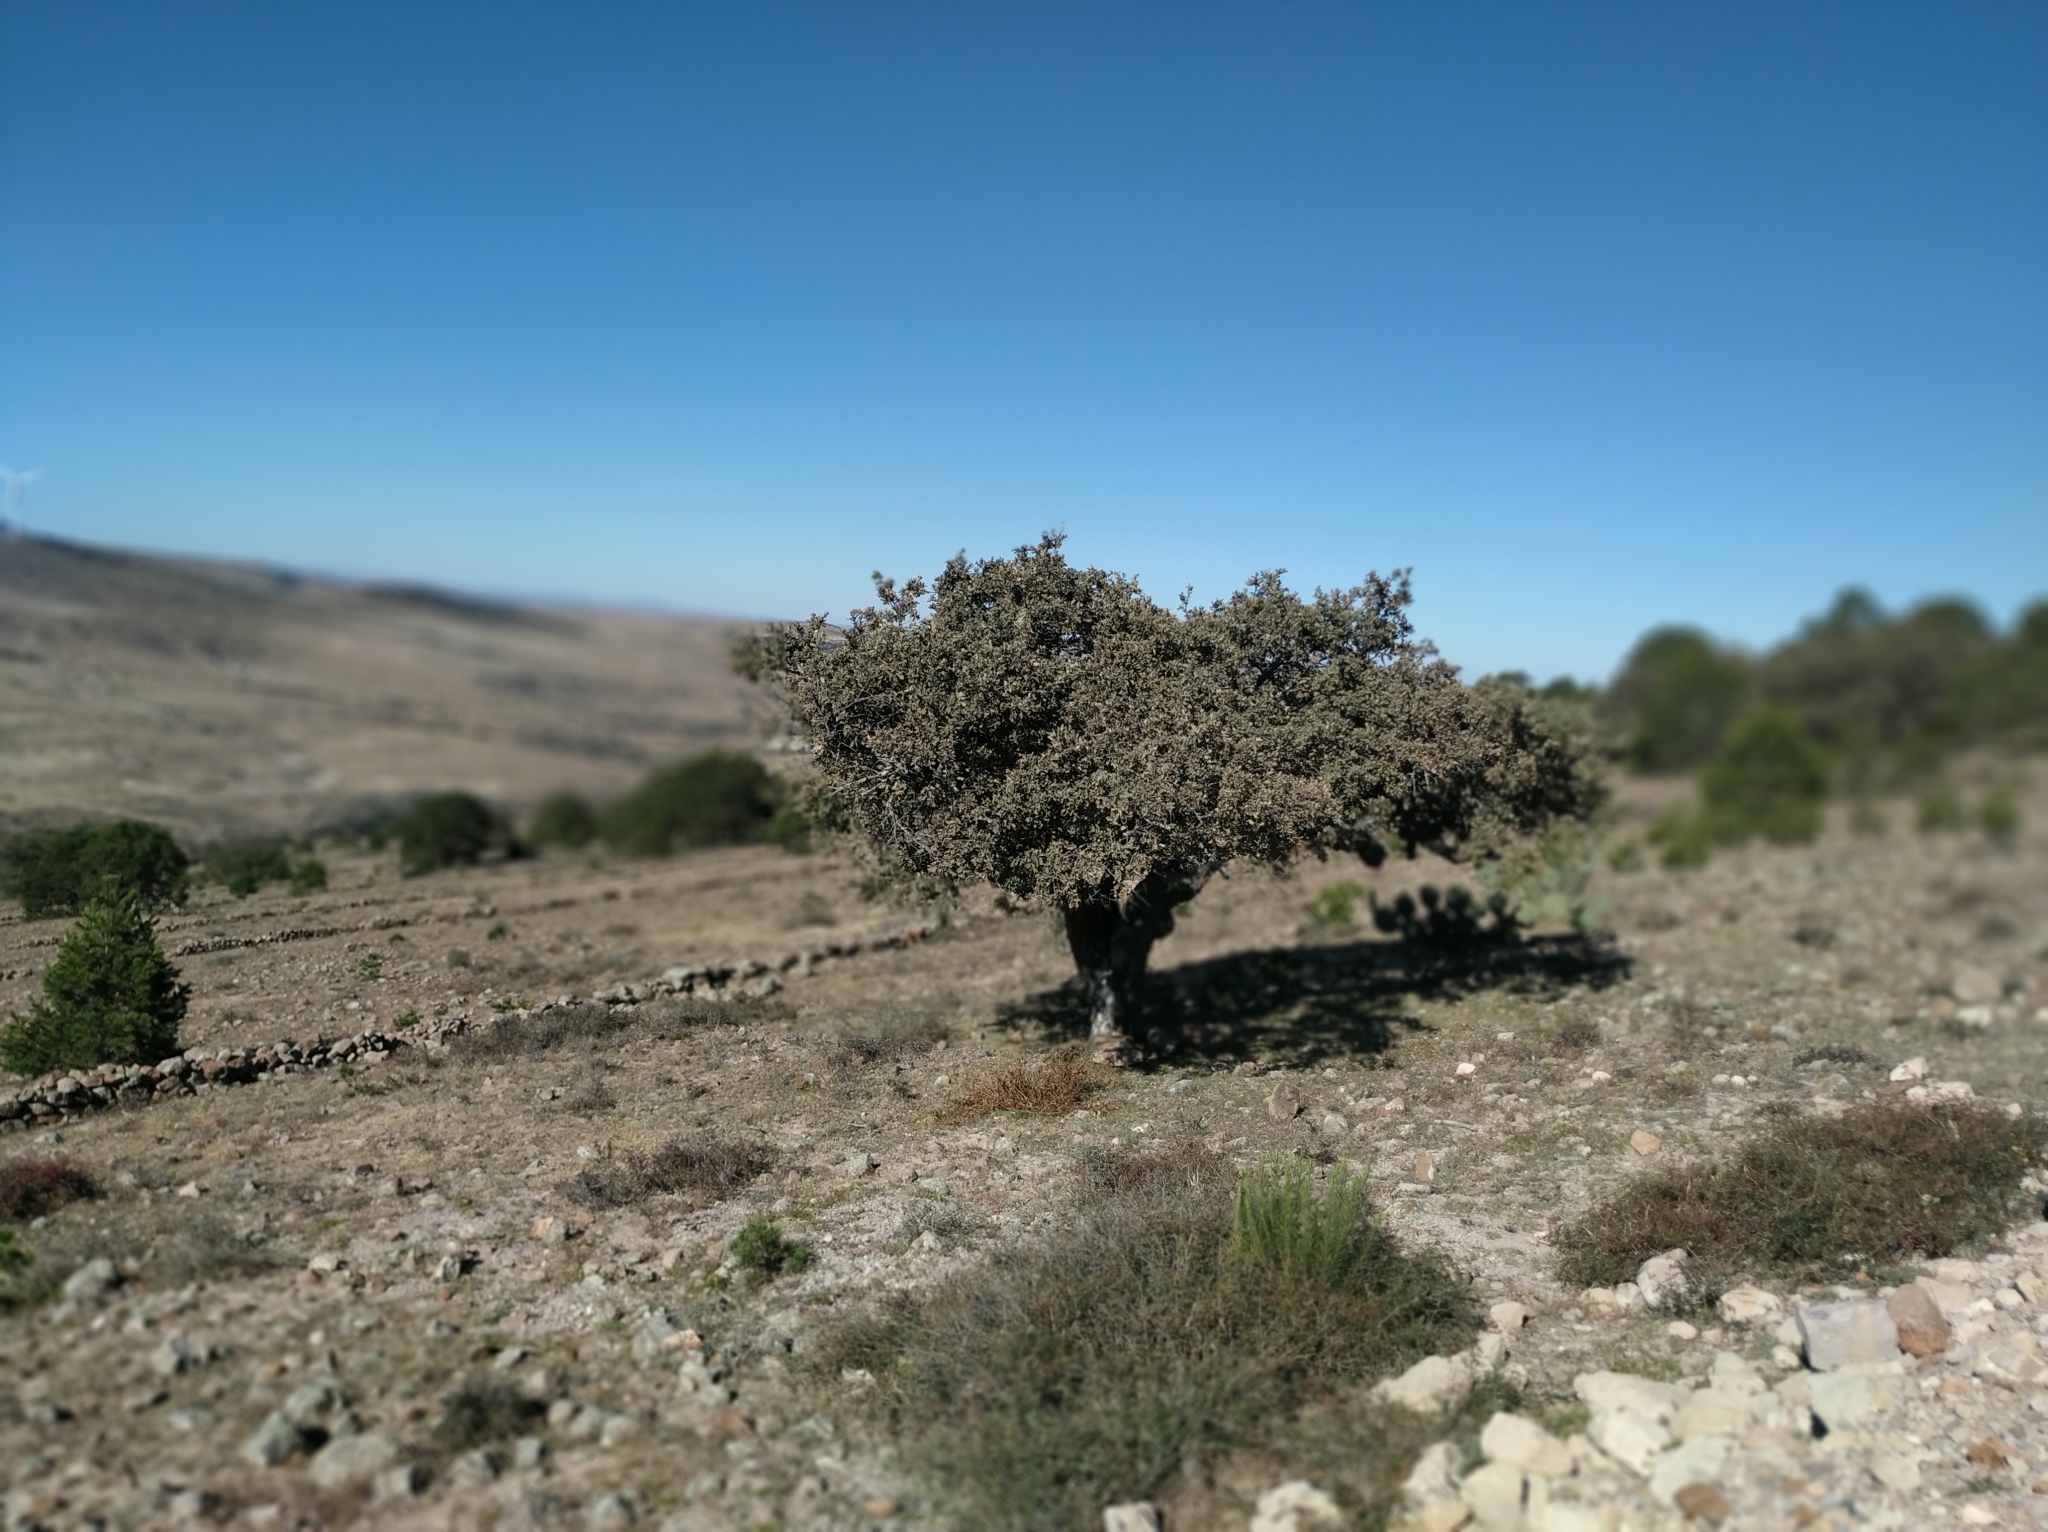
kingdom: Plantae
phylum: Tracheophyta
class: Magnoliopsida
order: Fagales
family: Fagaceae
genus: Quercus
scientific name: Quercus grisea
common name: Gray oak
